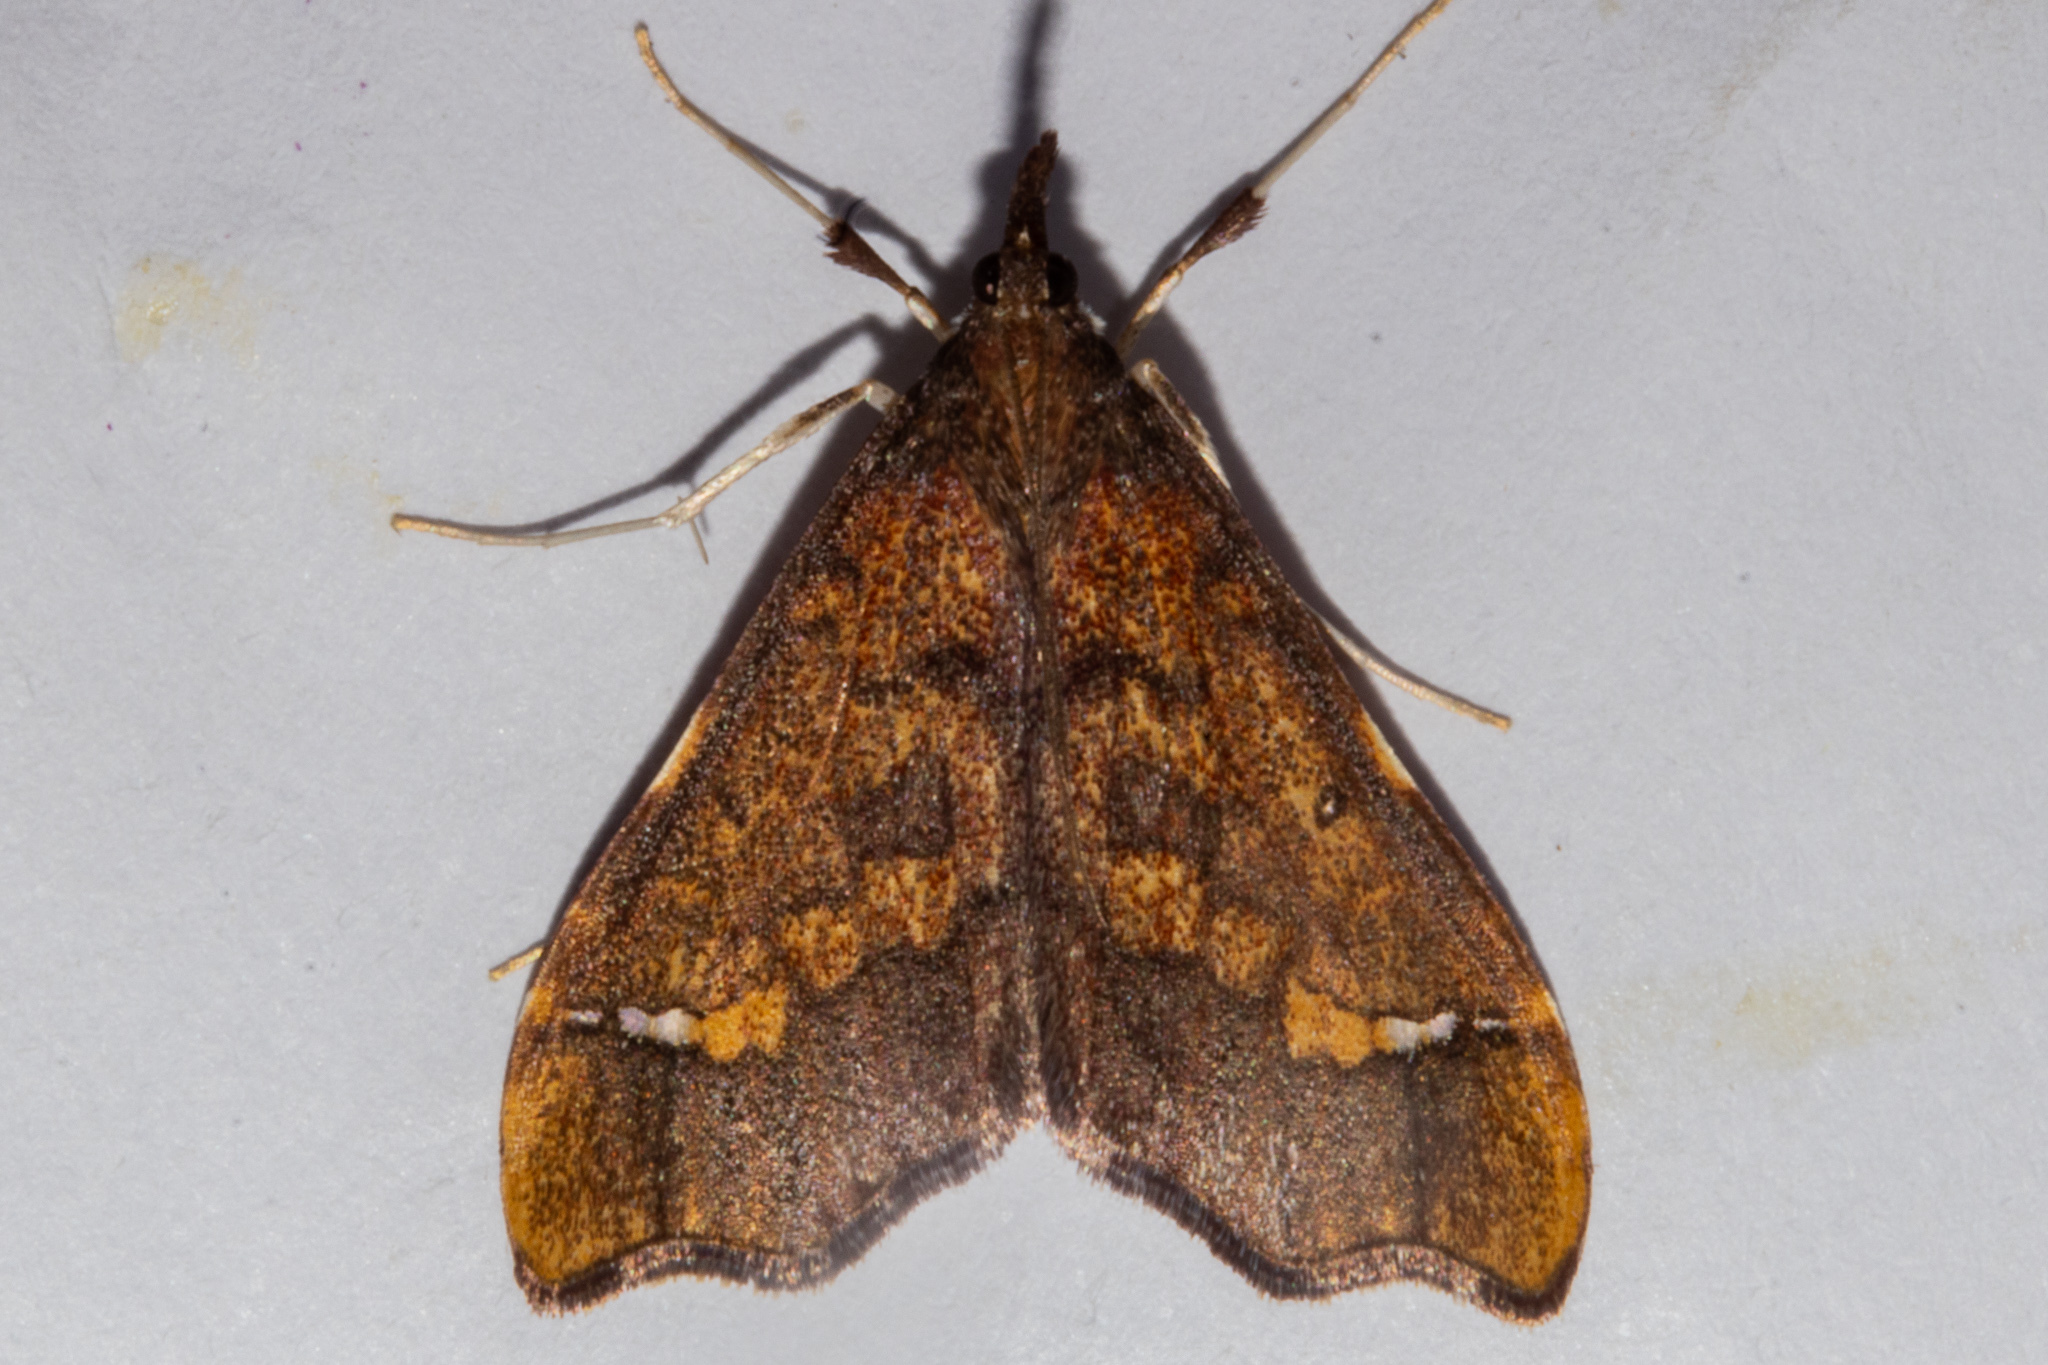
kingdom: Animalia
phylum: Arthropoda
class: Insecta
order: Lepidoptera
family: Crambidae
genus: Deana
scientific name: Deana hybreasalis
